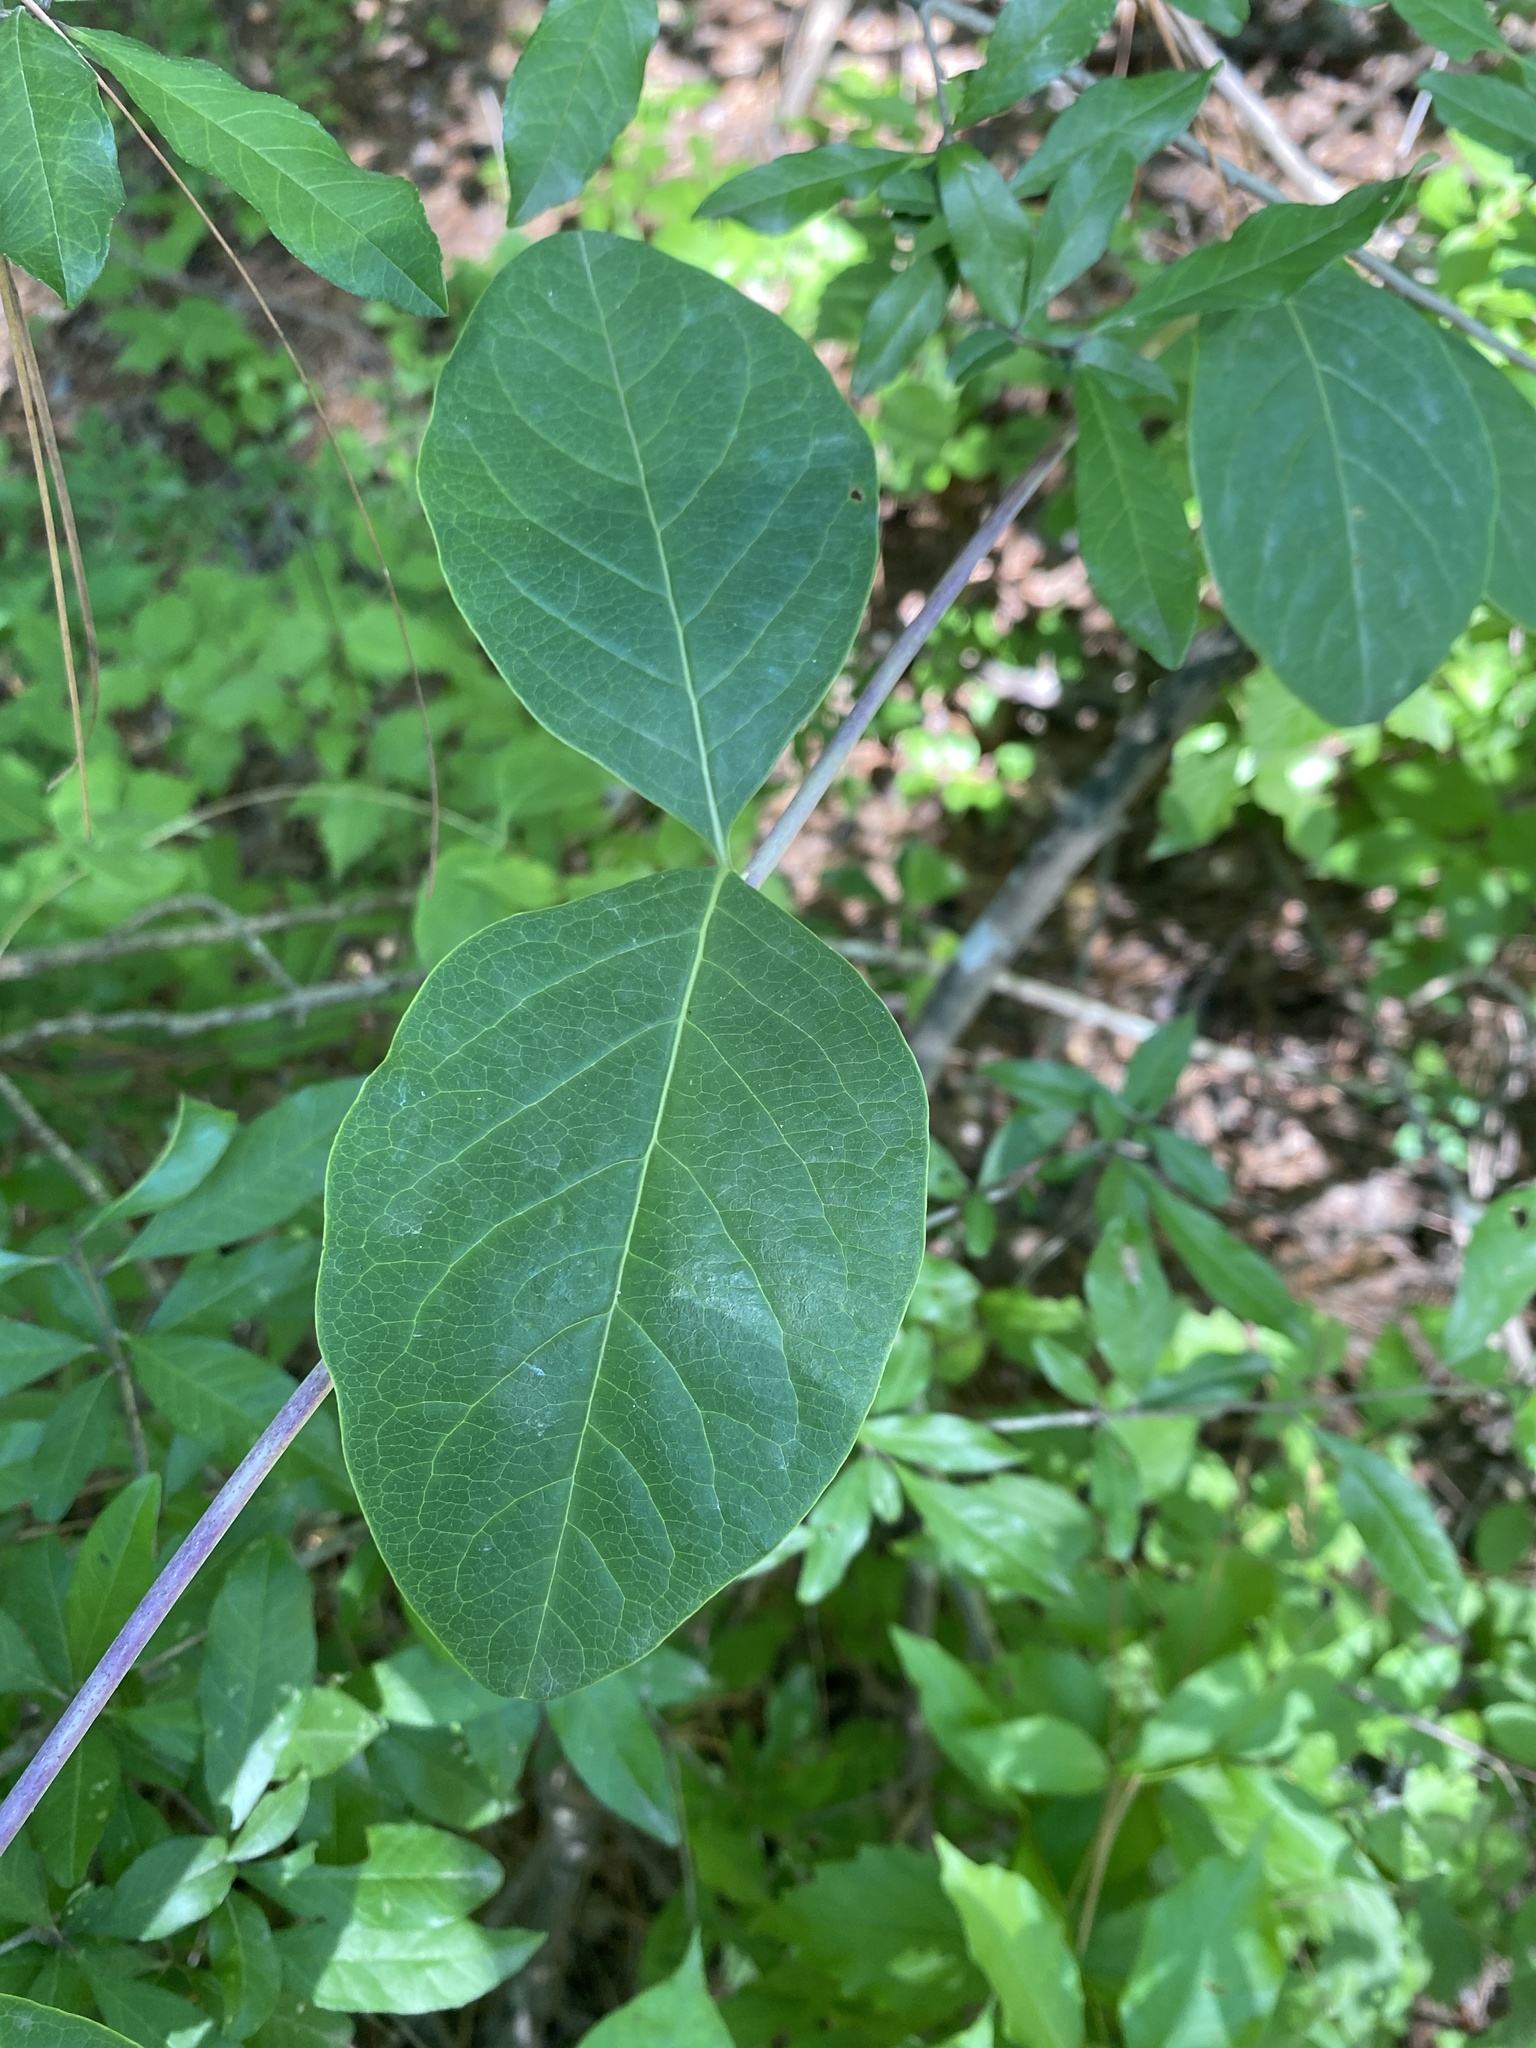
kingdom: Plantae
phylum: Tracheophyta
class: Magnoliopsida
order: Dipsacales
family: Caprifoliaceae
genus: Lonicera
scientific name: Lonicera sempervirens
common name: Coral honeysuckle
